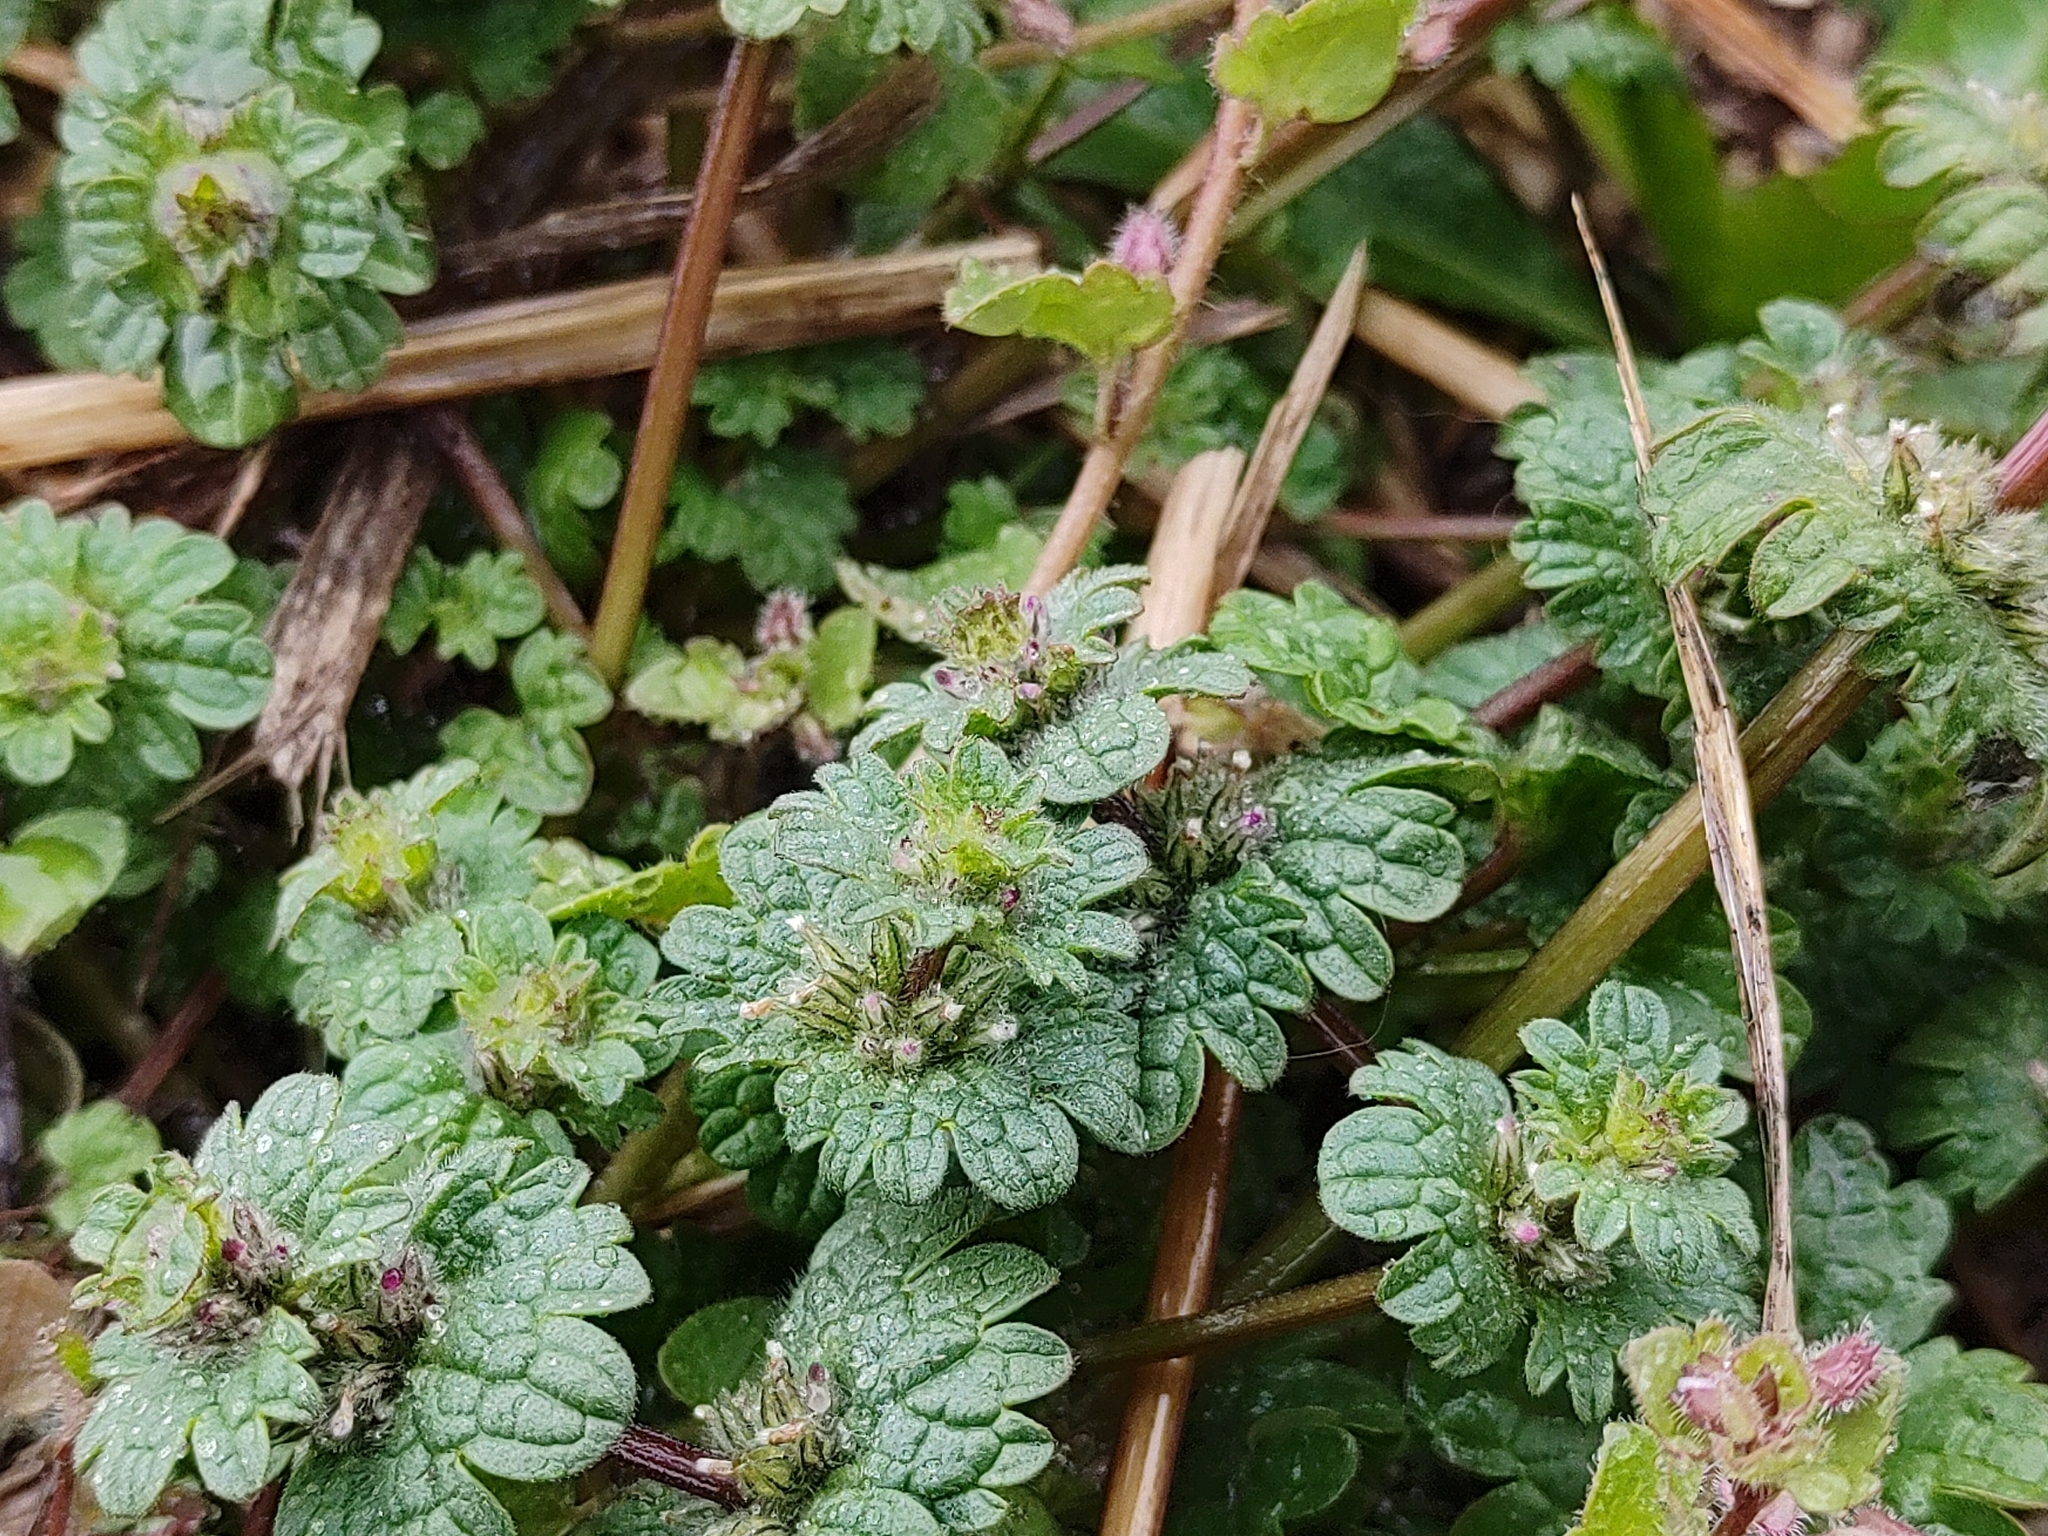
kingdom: Plantae
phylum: Tracheophyta
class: Magnoliopsida
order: Lamiales
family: Lamiaceae
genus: Lamium
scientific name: Lamium amplexicaule
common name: Henbit dead-nettle
